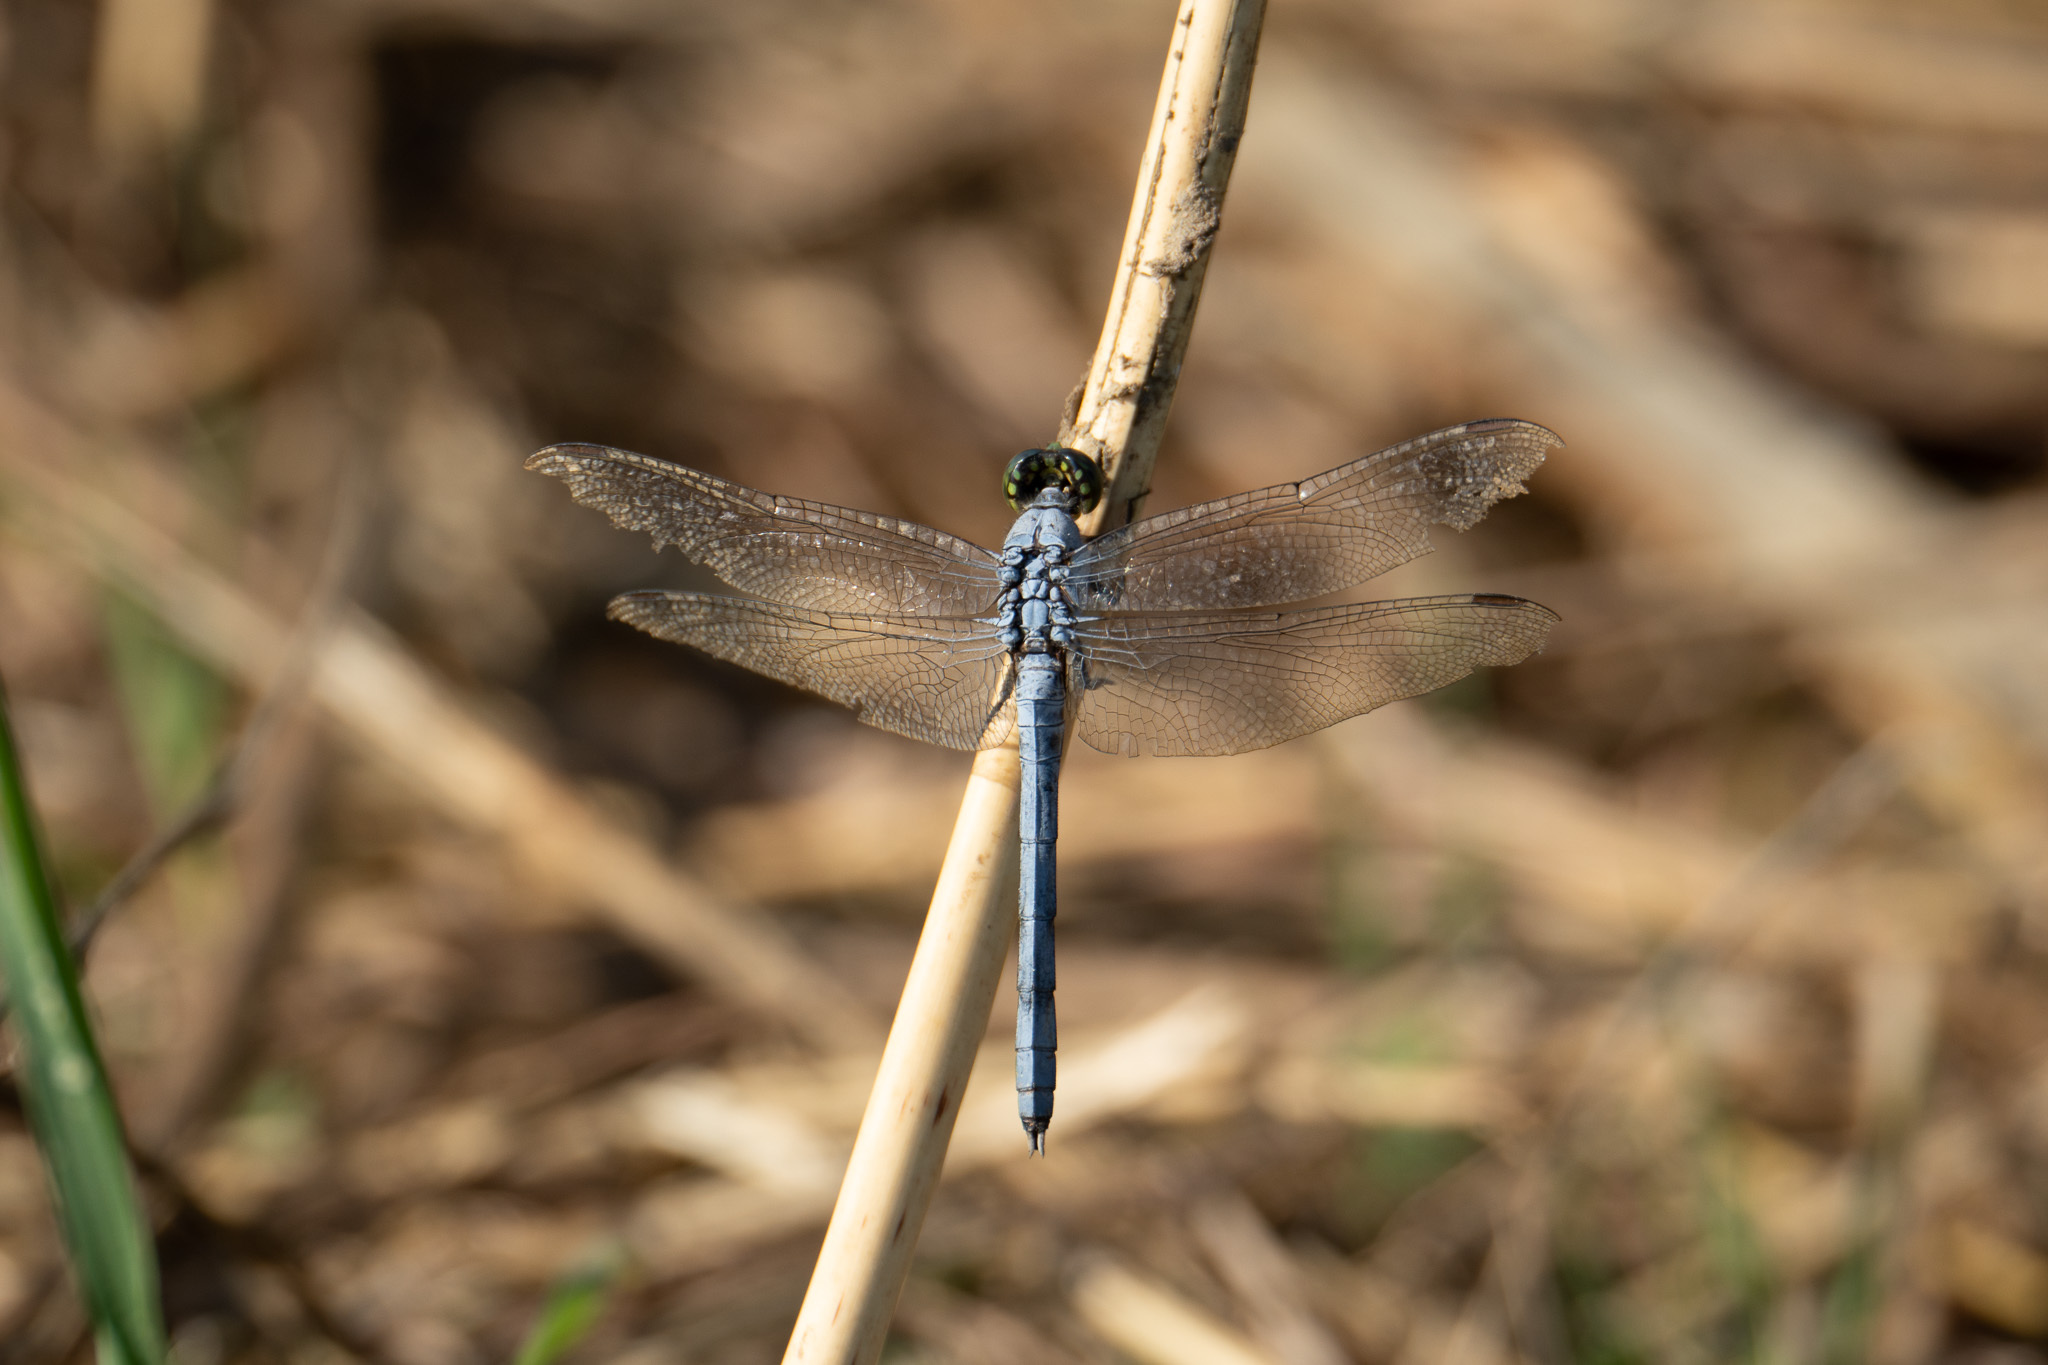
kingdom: Animalia
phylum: Arthropoda
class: Insecta
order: Odonata
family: Libellulidae
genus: Erythemis
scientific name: Erythemis simplicicollis
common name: Eastern pondhawk
